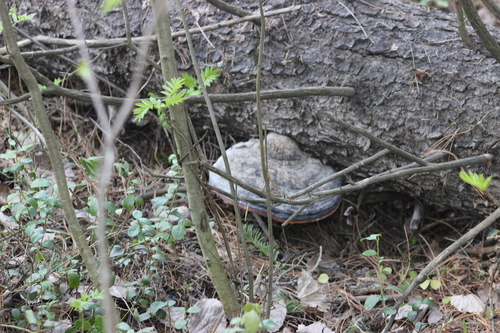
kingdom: Fungi
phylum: Basidiomycota
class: Agaricomycetes
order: Polyporales
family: Fomitopsidaceae
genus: Fomitopsis
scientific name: Fomitopsis pinicola
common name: Red-belted bracket
